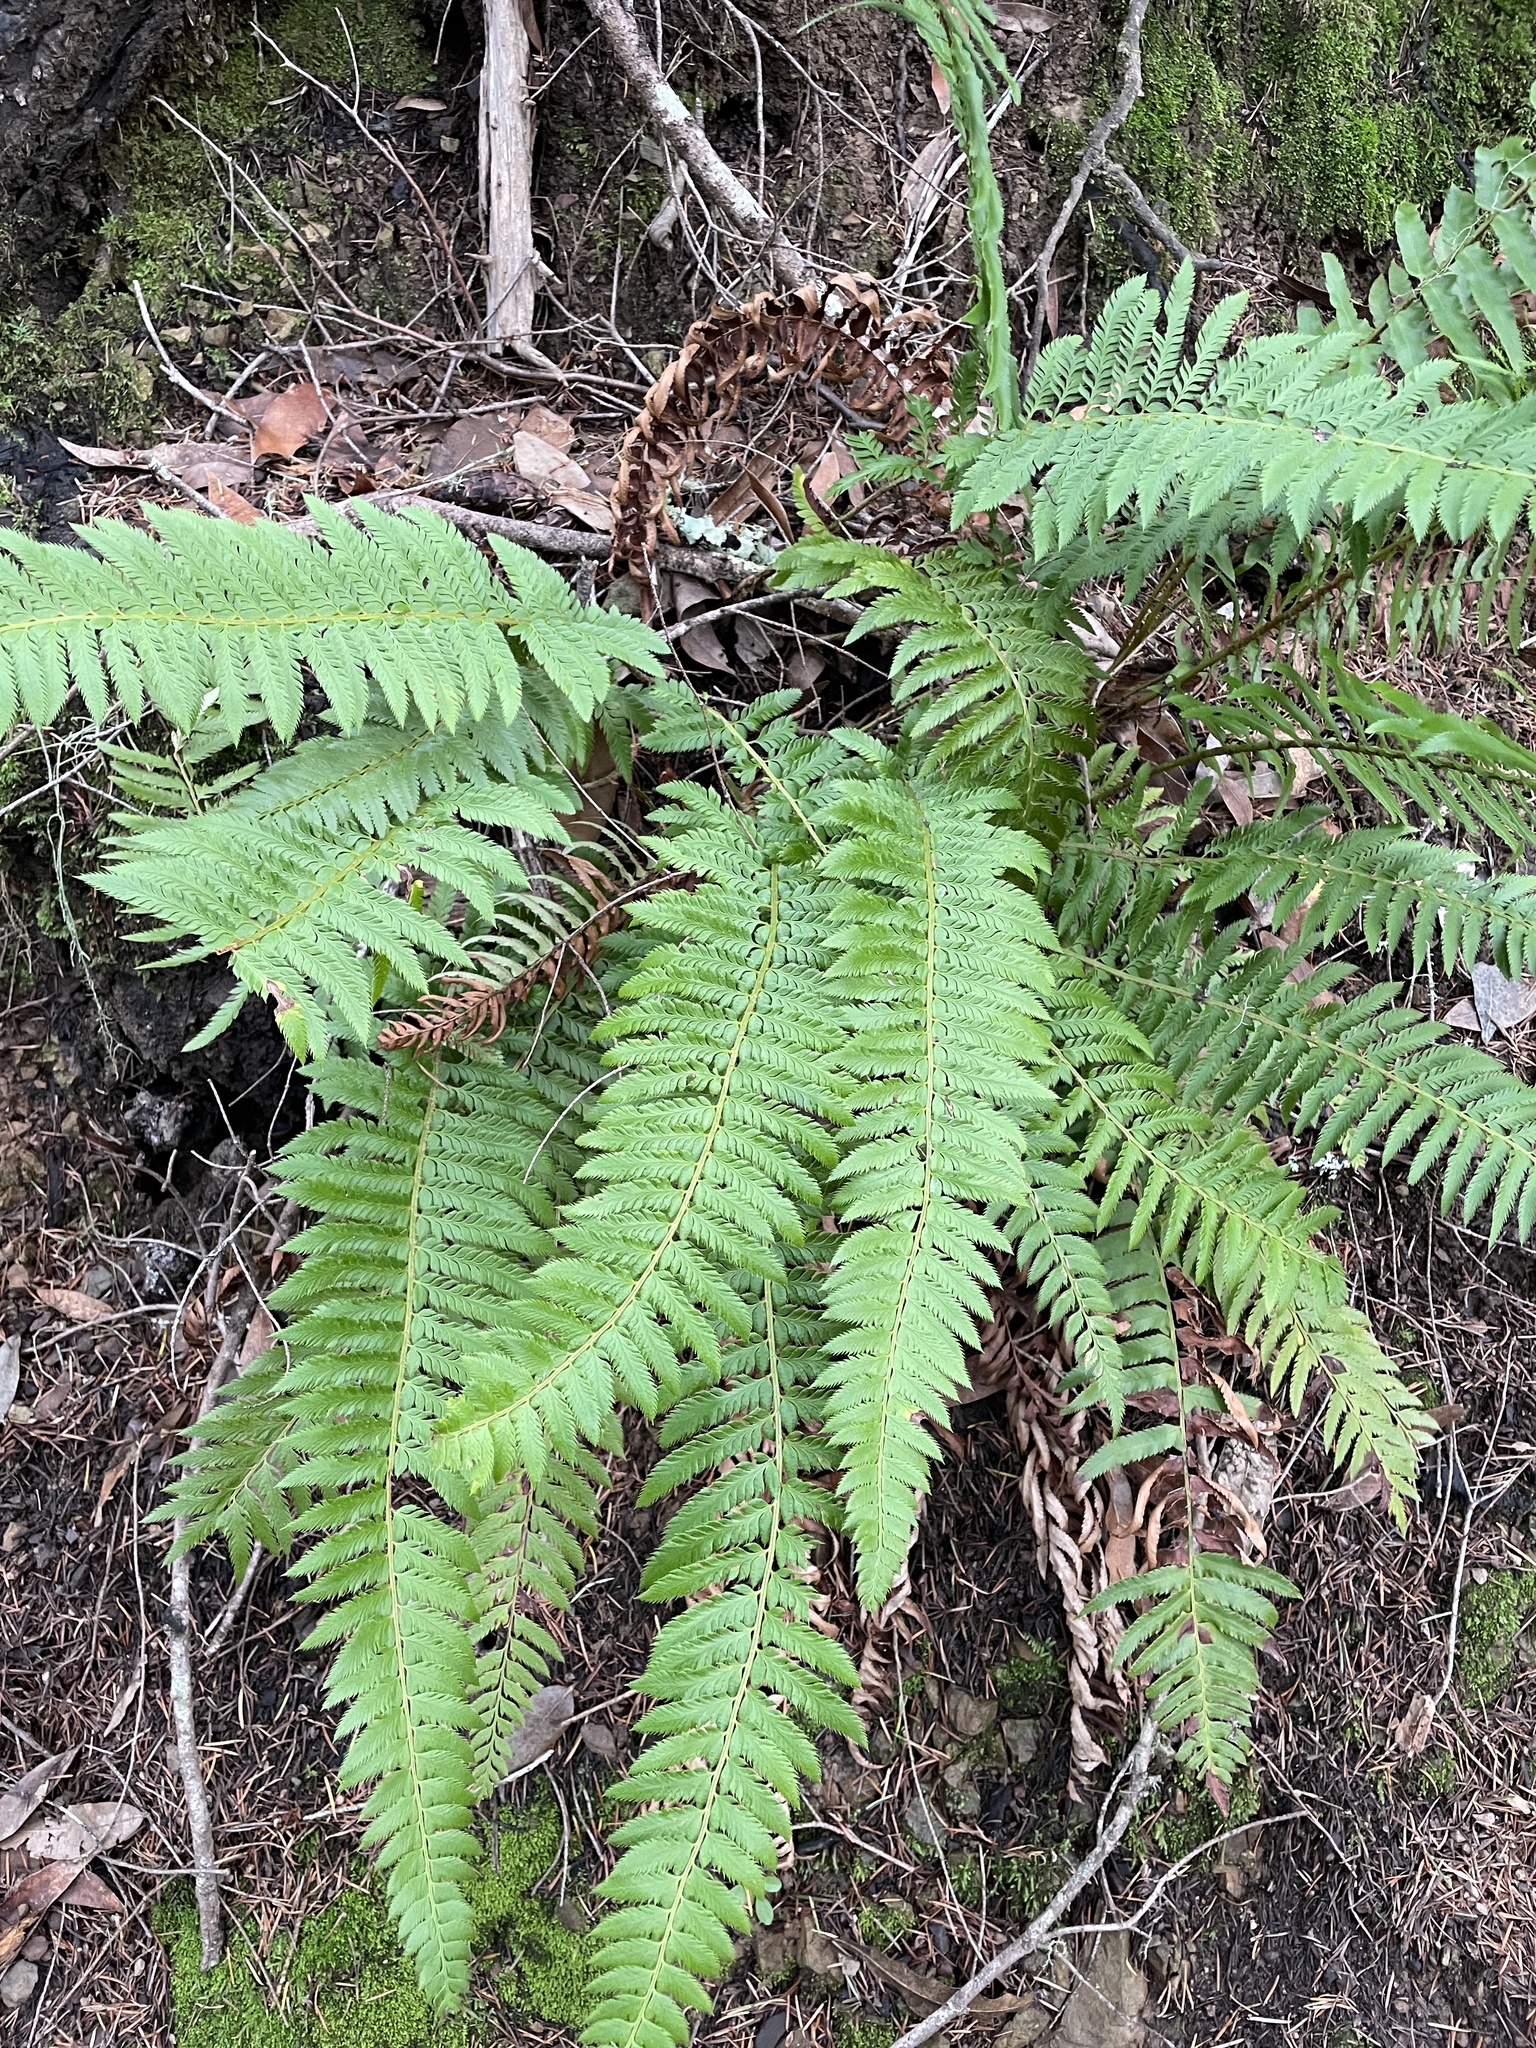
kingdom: Plantae
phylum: Tracheophyta
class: Polypodiopsida
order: Polypodiales
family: Dryopteridaceae
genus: Polystichum
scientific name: Polystichum californicum
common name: California sword fern
